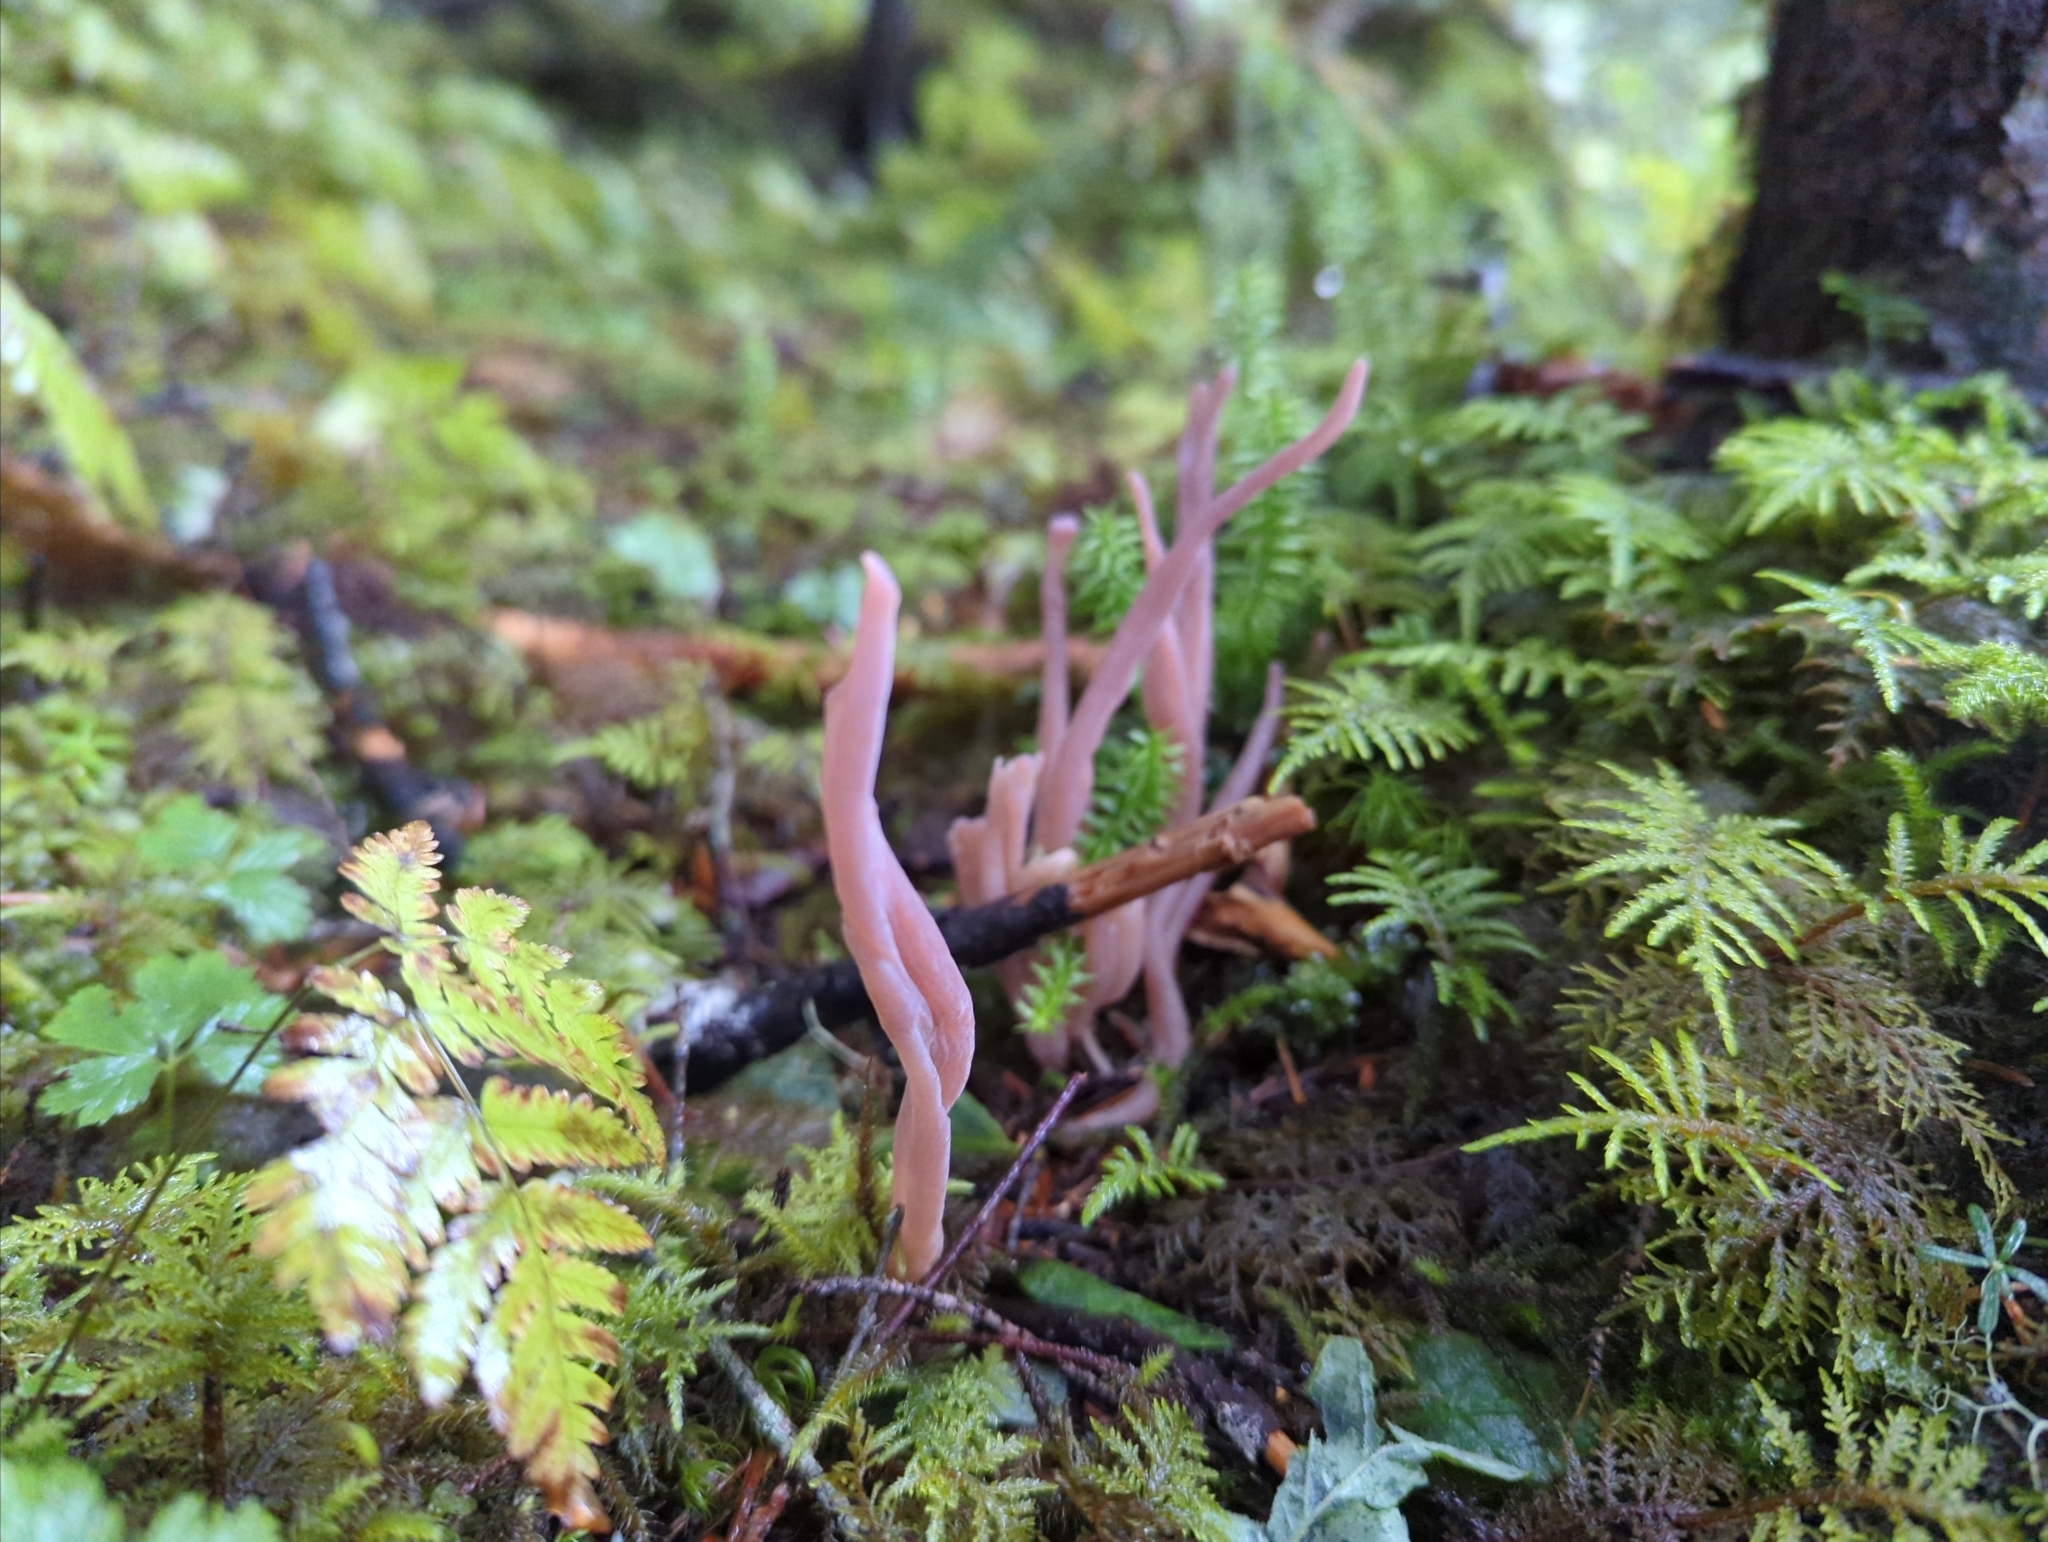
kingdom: Fungi
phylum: Basidiomycota
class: Agaricomycetes
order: Hymenochaetales
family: Rickenellaceae
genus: Alloclavaria
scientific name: Alloclavaria purpurea
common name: Purple spindles
